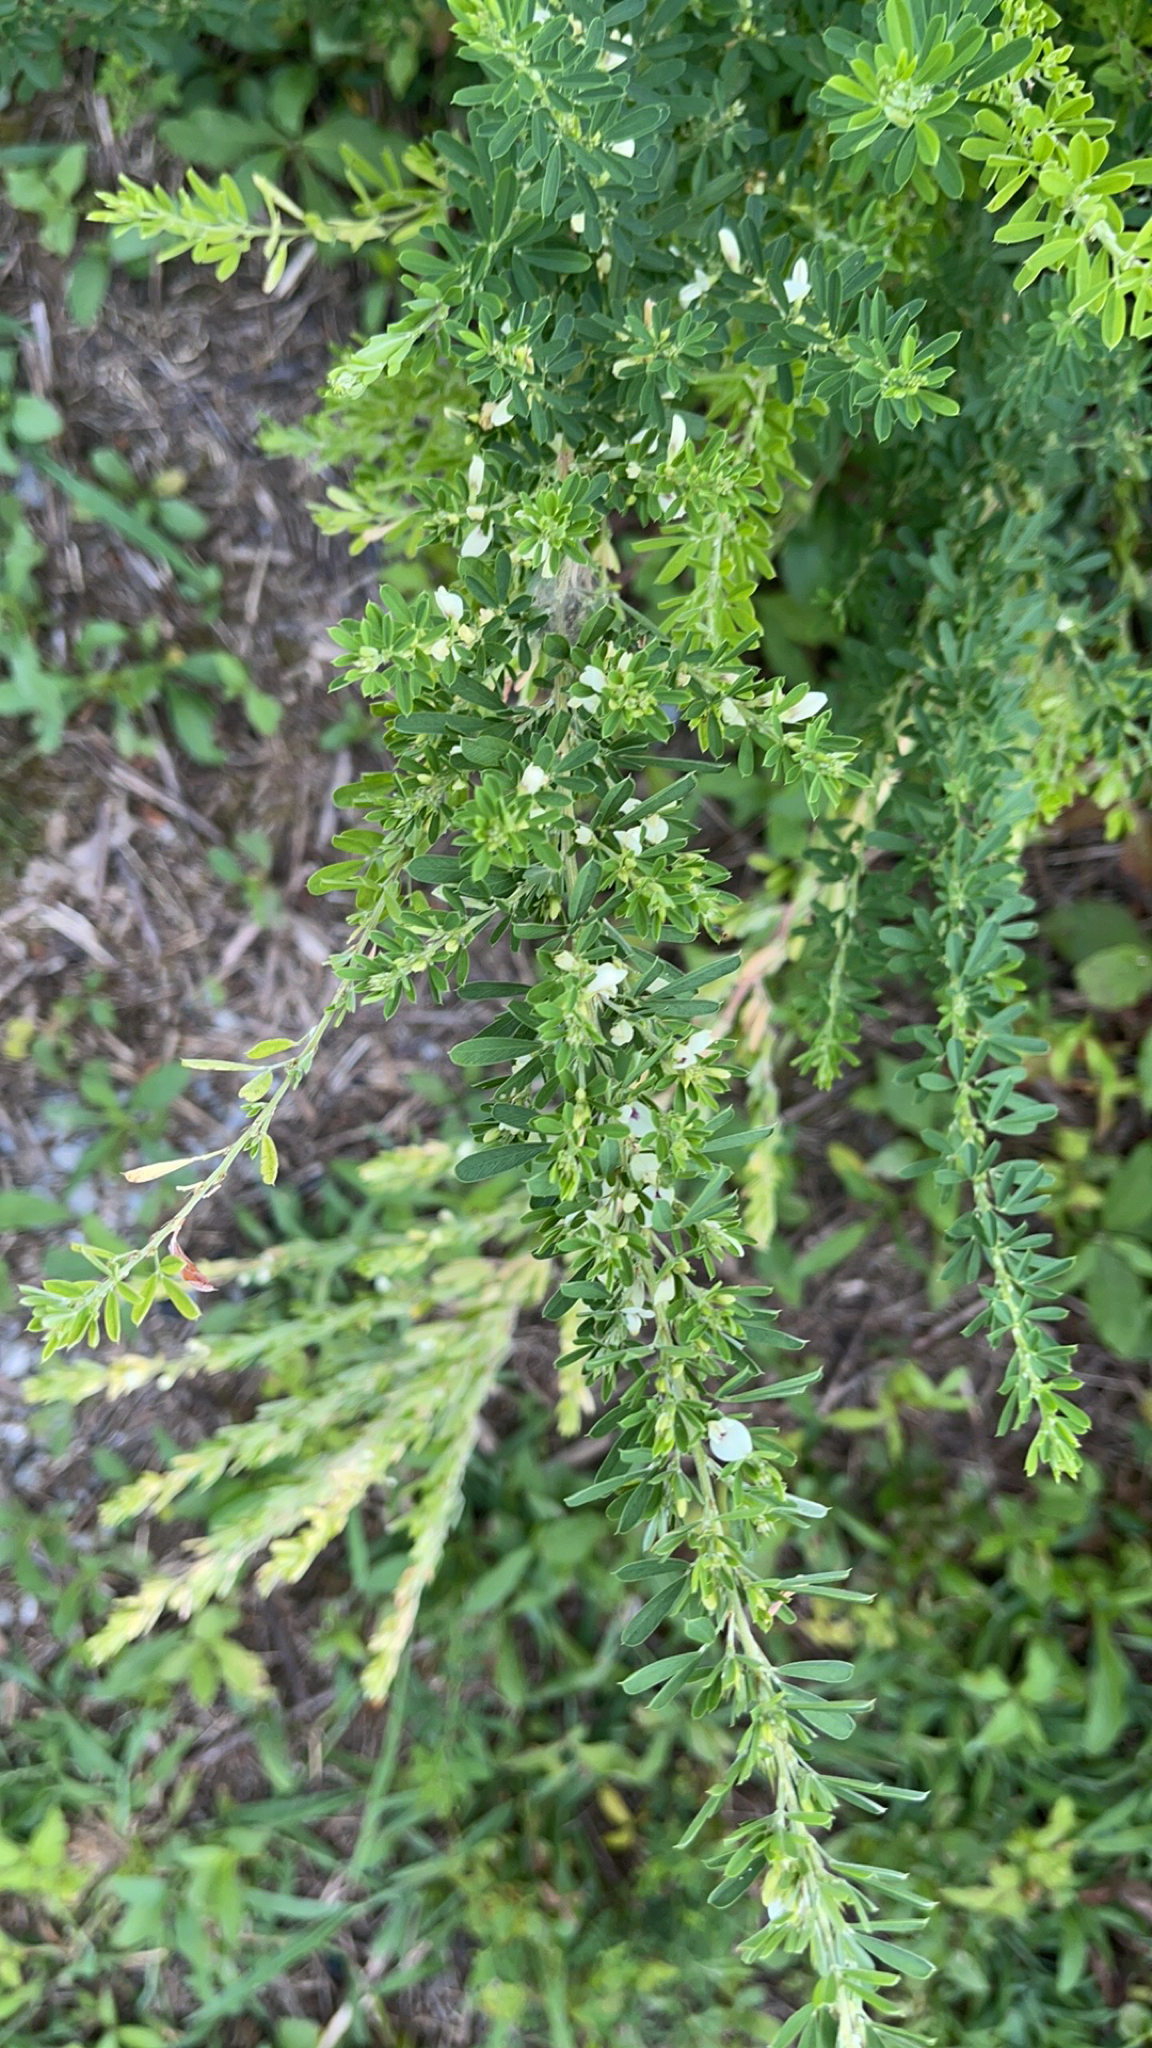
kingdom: Plantae
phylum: Tracheophyta
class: Magnoliopsida
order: Fabales
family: Fabaceae
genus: Lespedeza
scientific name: Lespedeza cuneata
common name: Chinese bush-clover
